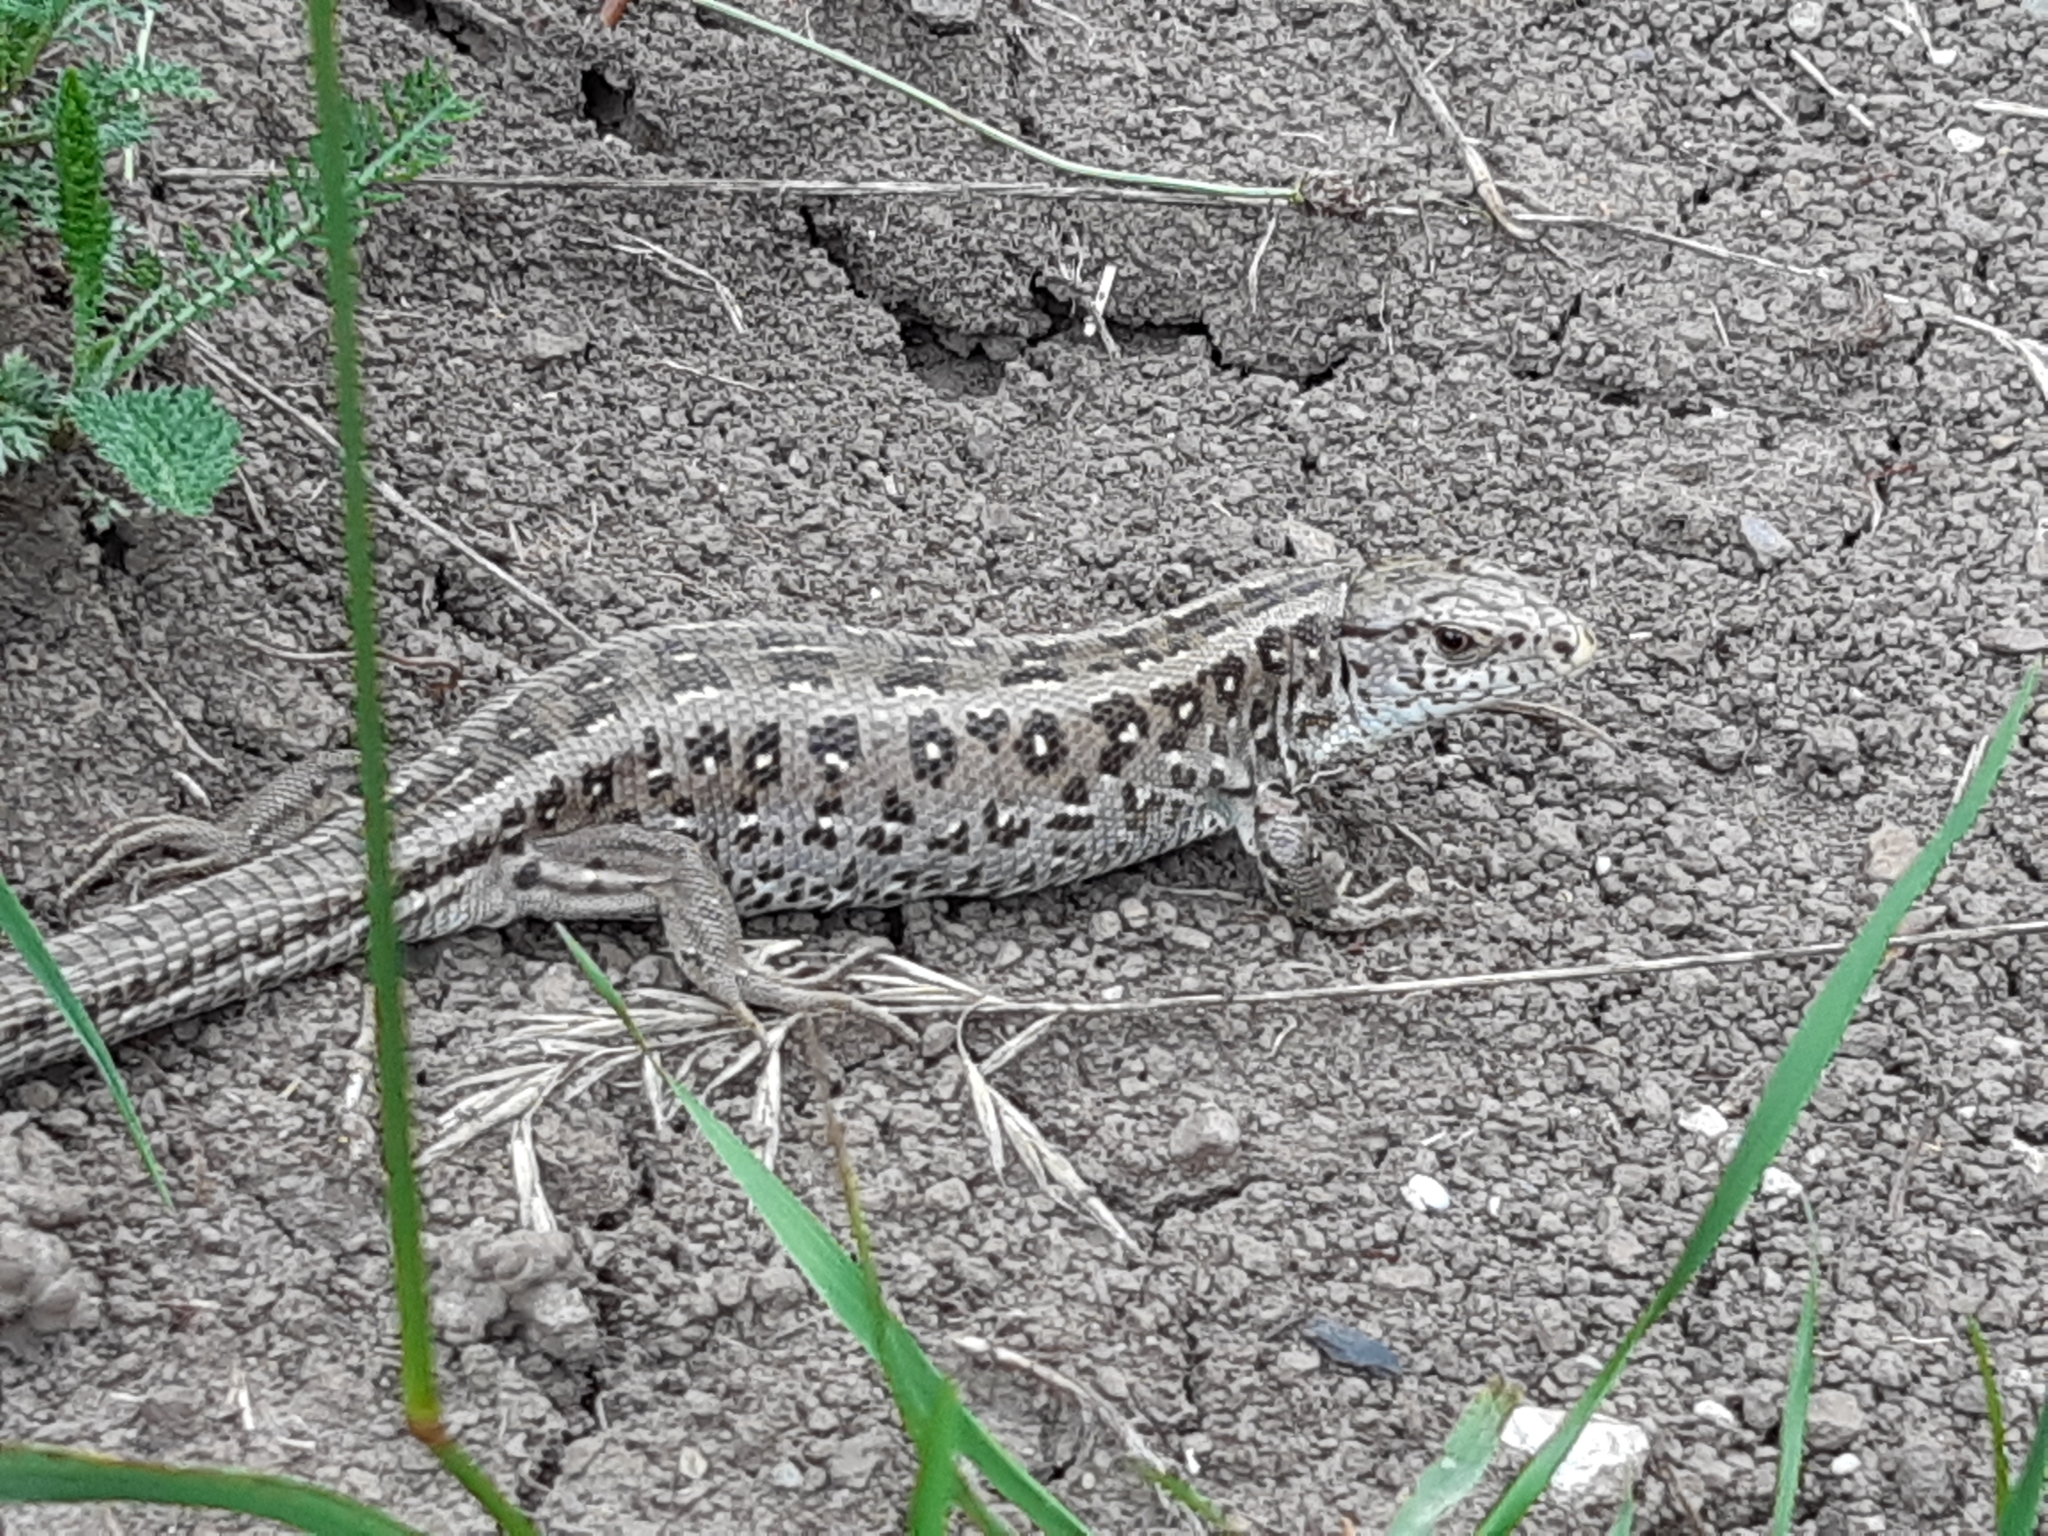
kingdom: Animalia
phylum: Chordata
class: Squamata
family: Lacertidae
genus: Lacerta
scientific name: Lacerta agilis
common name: Sand lizard
